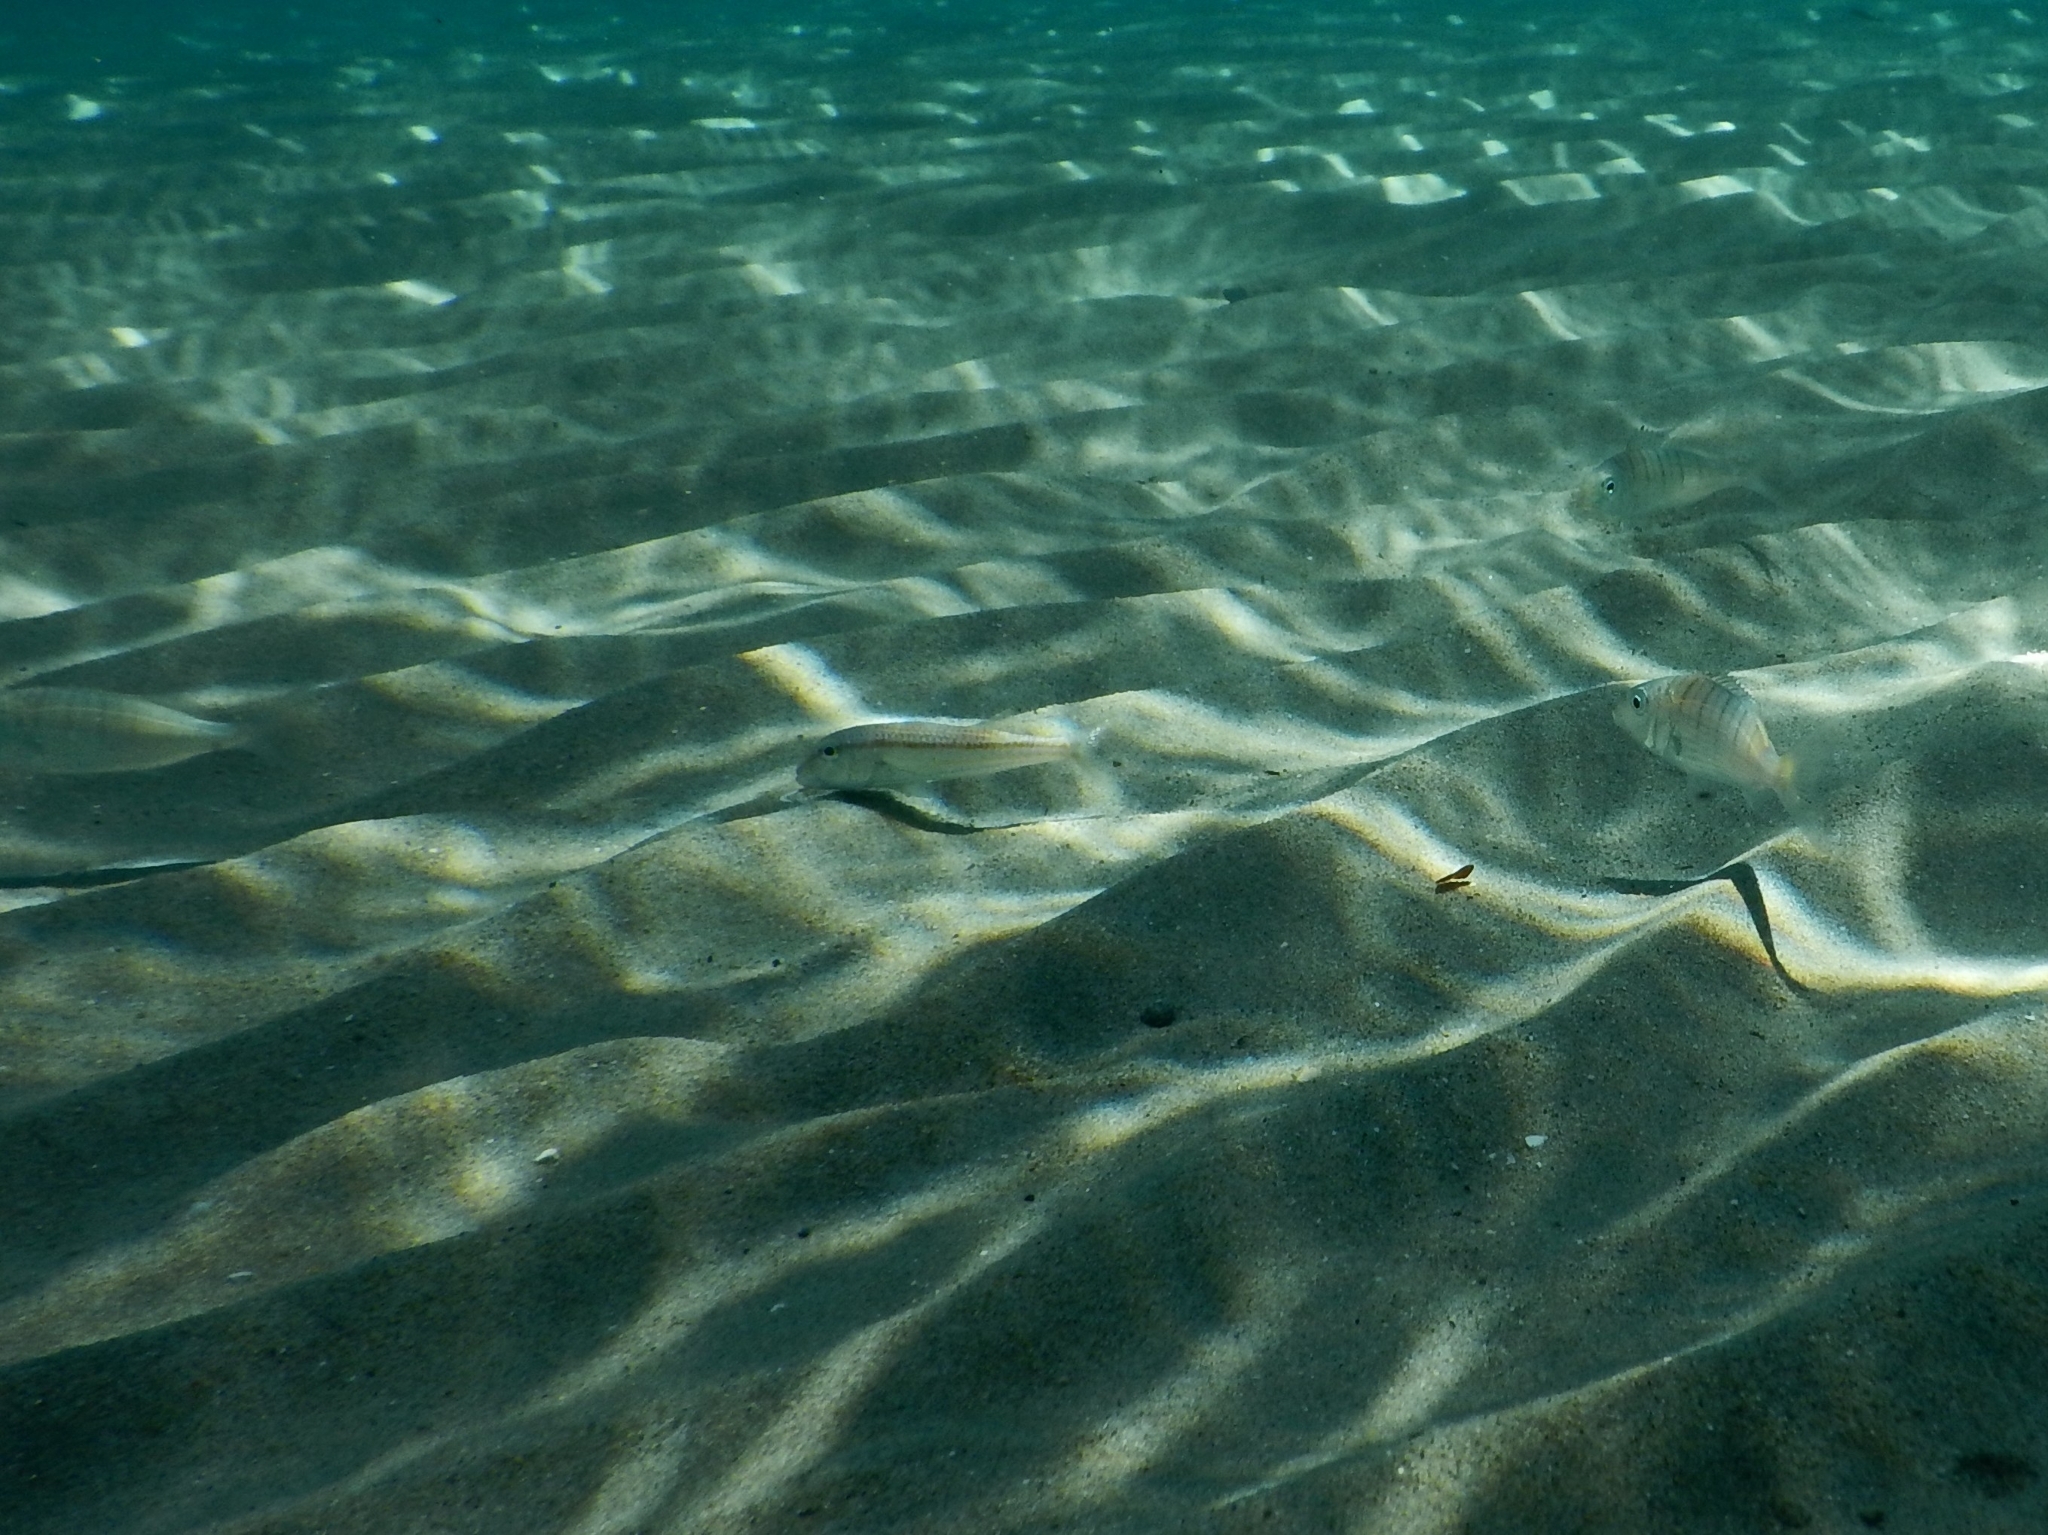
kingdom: Animalia
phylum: Chordata
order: Perciformes
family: Mullidae
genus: Mullus
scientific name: Mullus barbatus
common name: Blunt-snouted mullet
